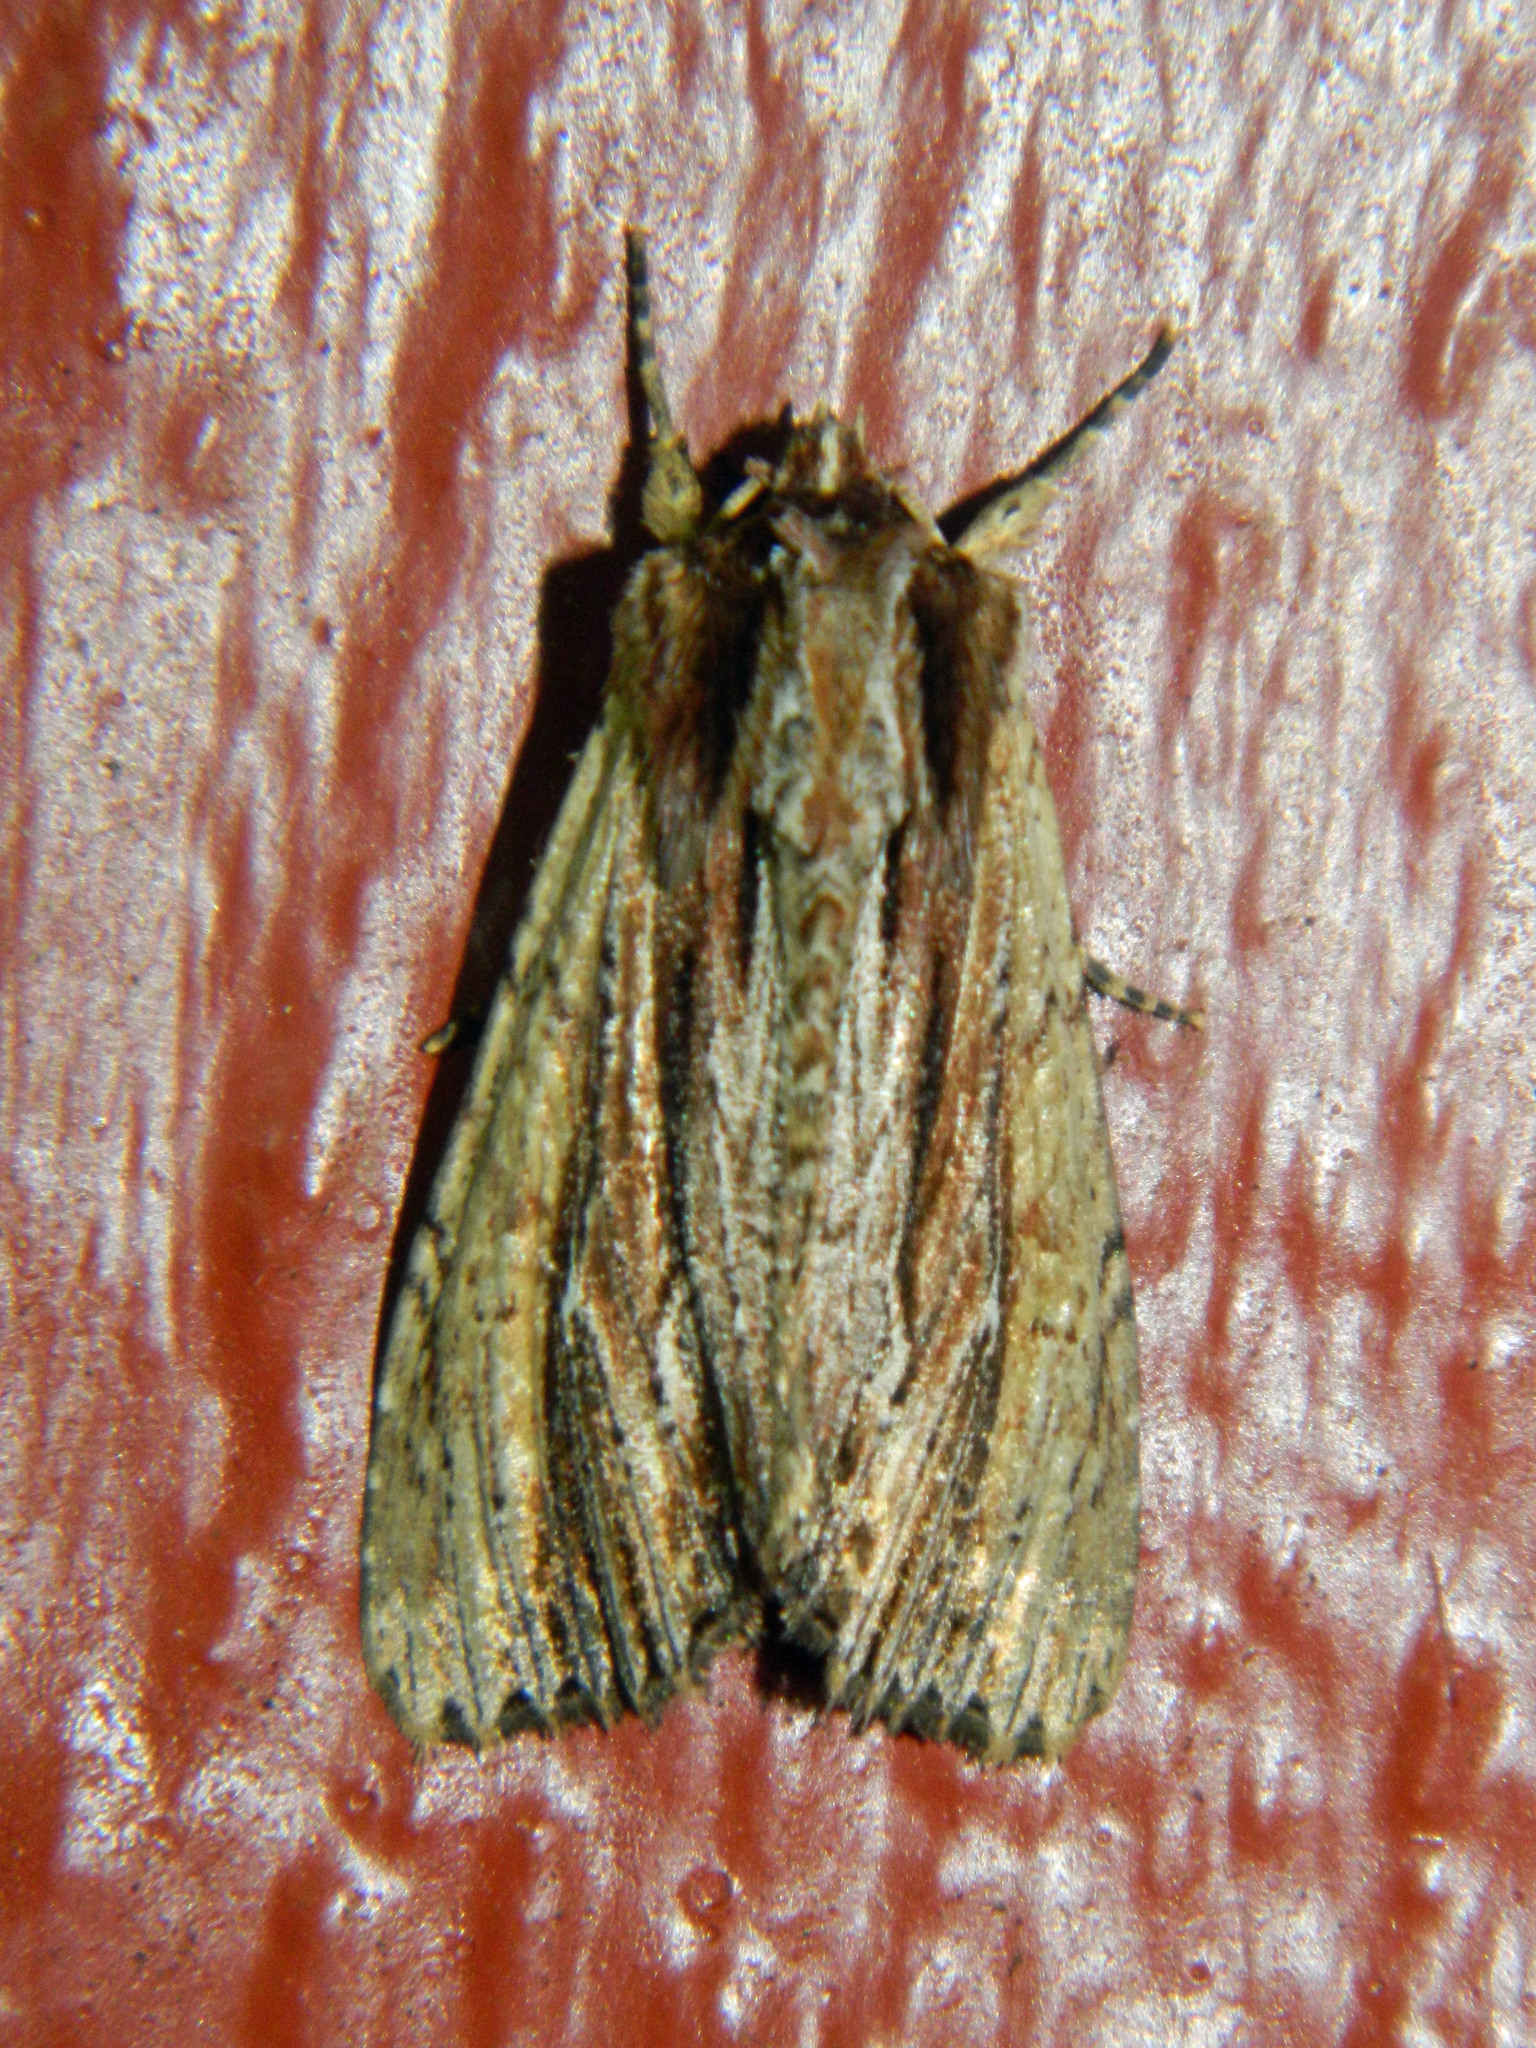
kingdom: Animalia
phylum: Arthropoda
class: Insecta
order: Lepidoptera
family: Noctuidae
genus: Apamea
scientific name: Apamea verbascoides
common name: Mullein apamea moth
